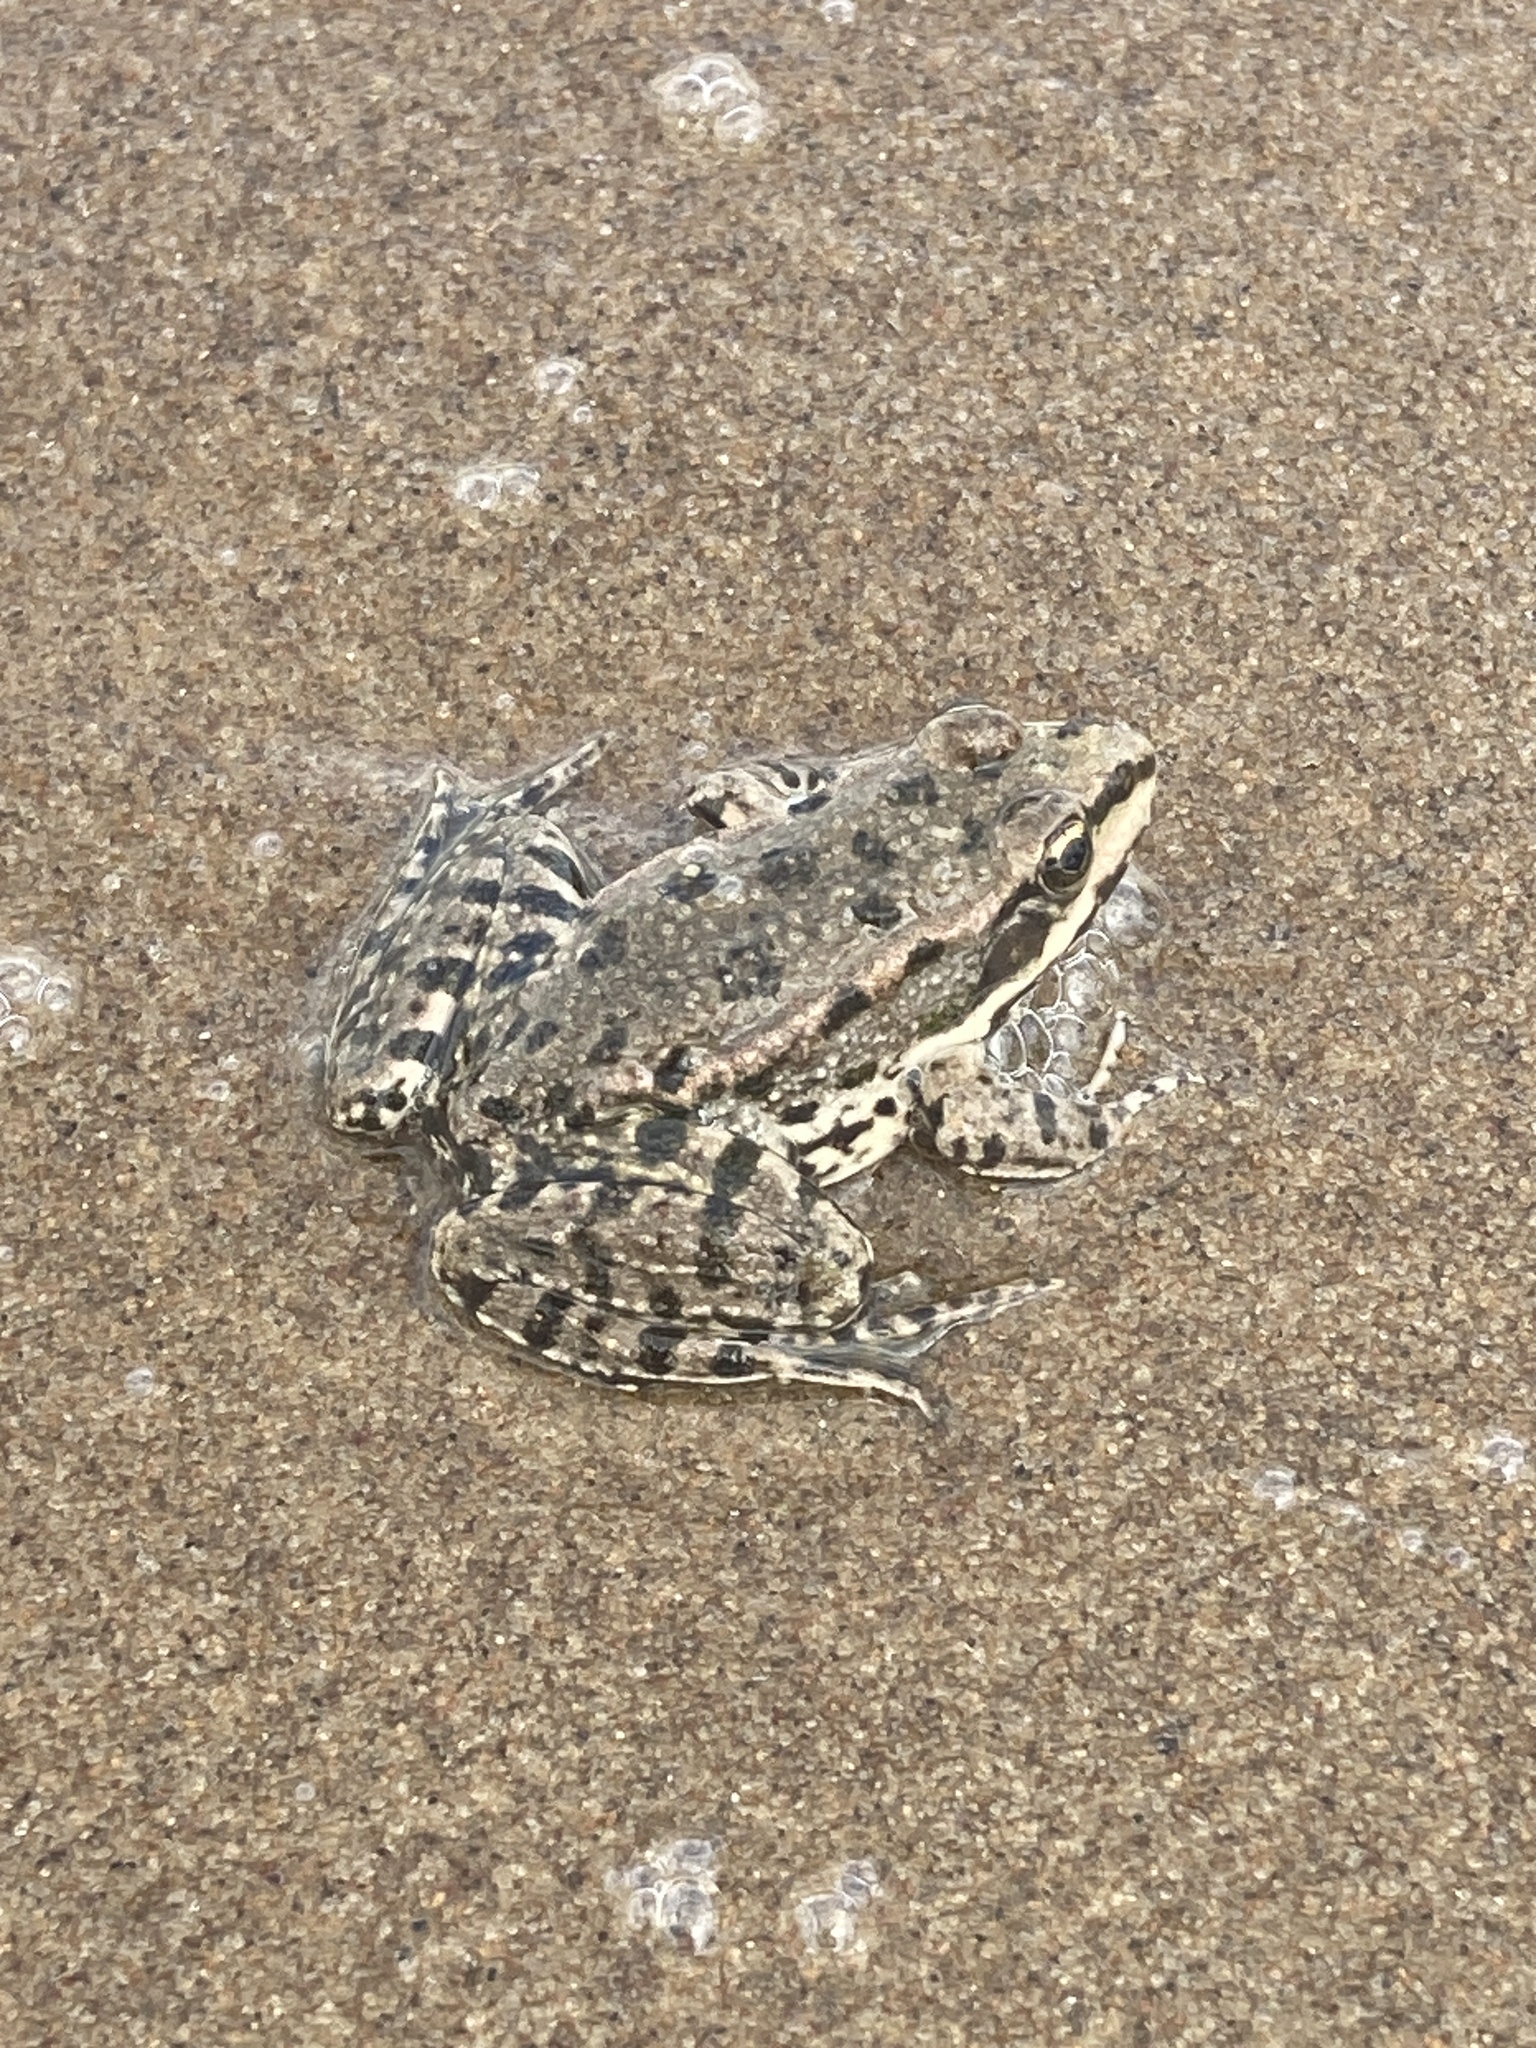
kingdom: Animalia
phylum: Chordata
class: Amphibia
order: Anura
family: Ranidae
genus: Pelophylax
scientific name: Pelophylax ridibundus
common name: Marsh frog
